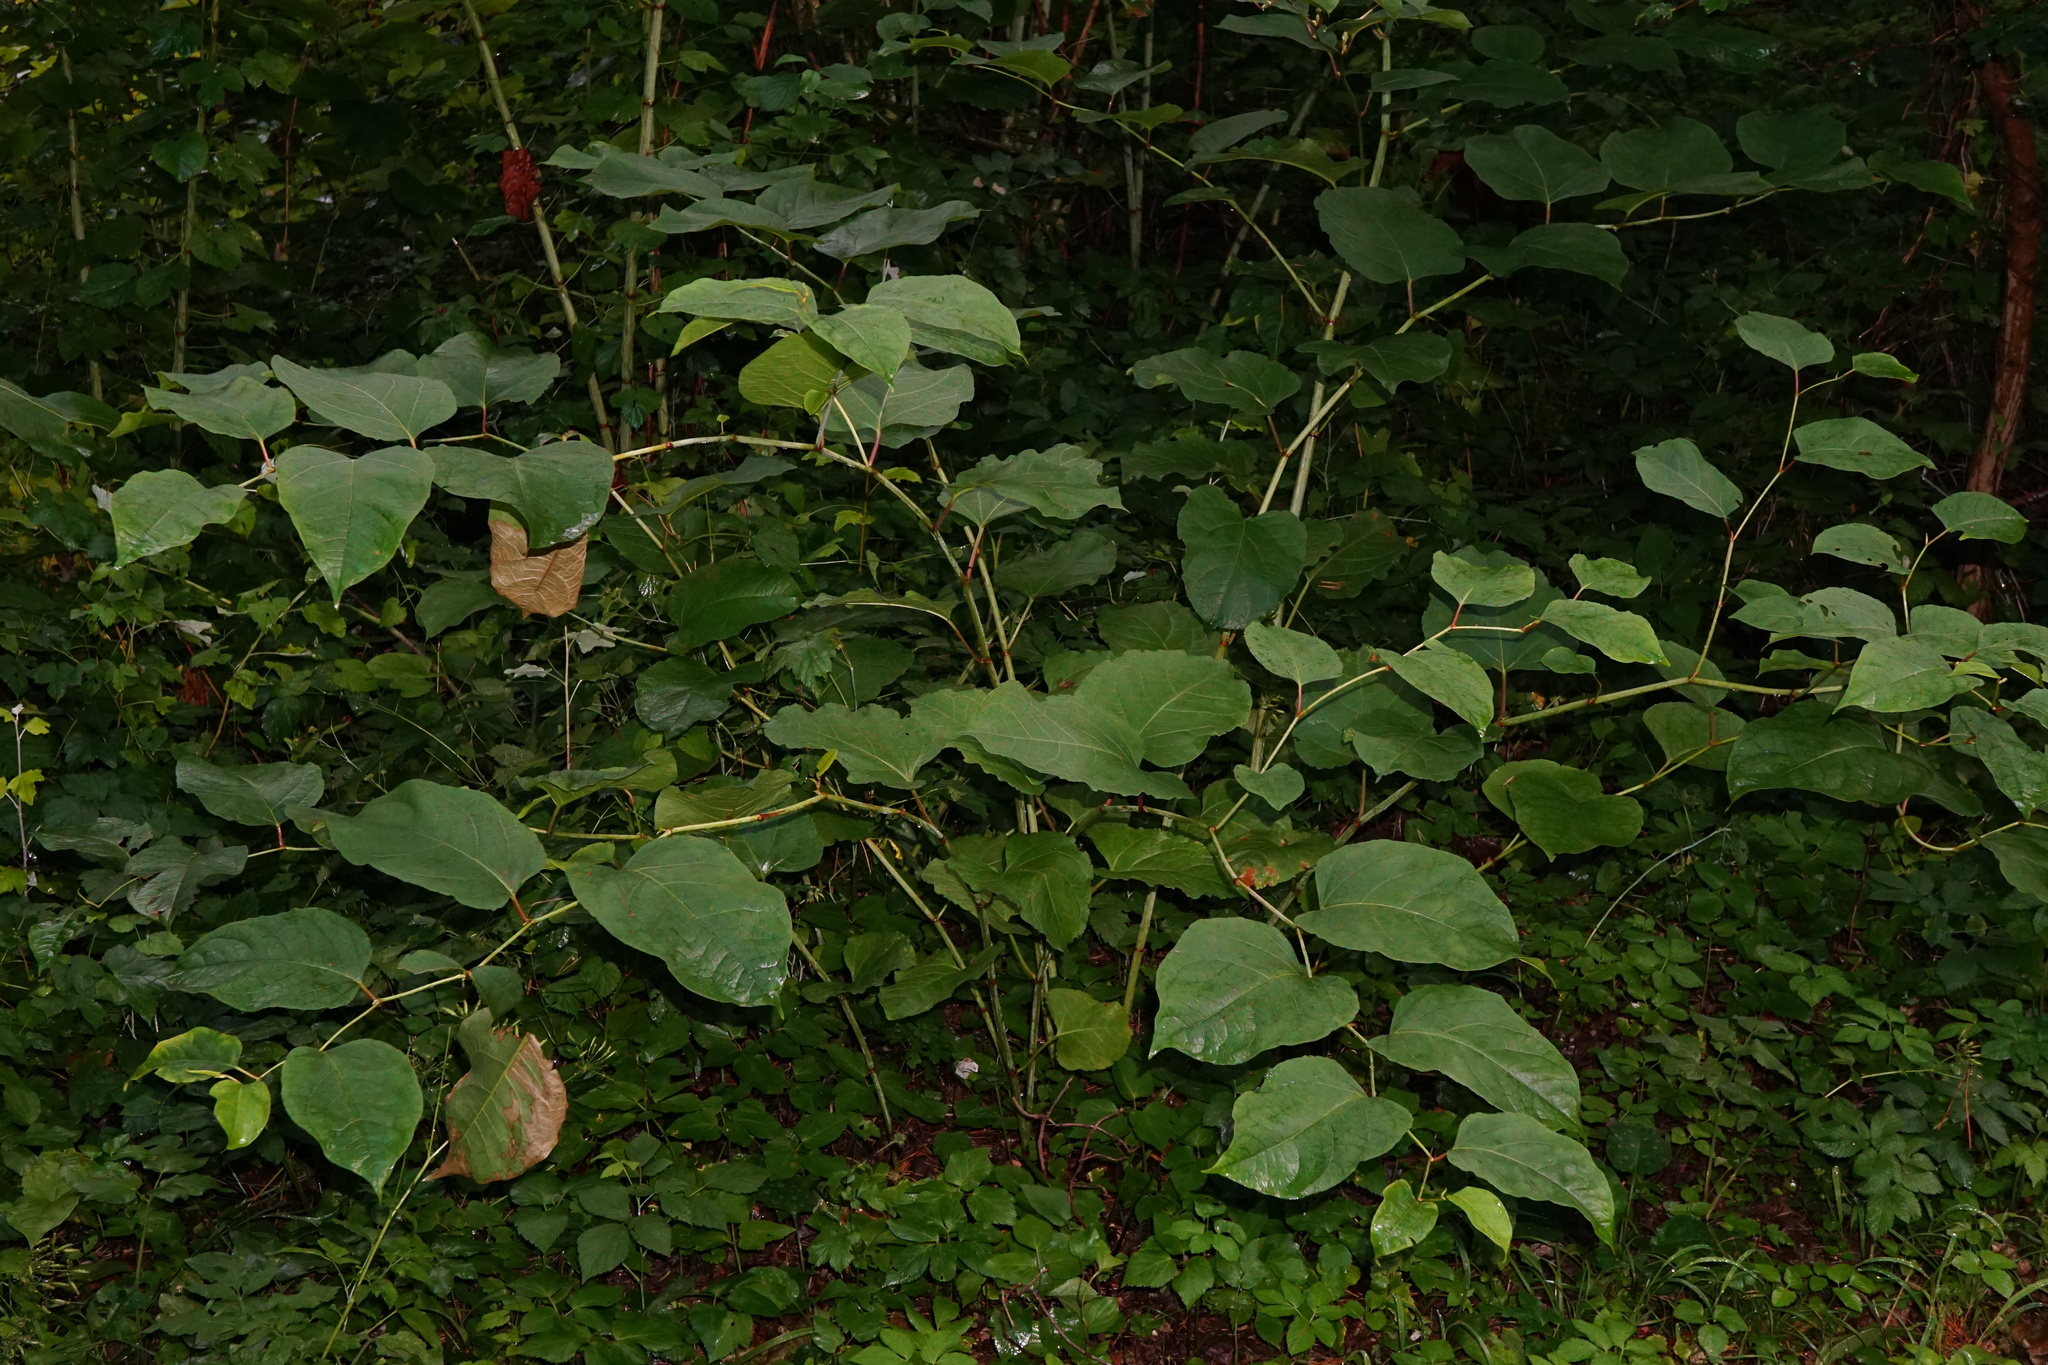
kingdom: Plantae
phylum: Tracheophyta
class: Magnoliopsida
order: Caryophyllales
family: Polygonaceae
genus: Reynoutria
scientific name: Reynoutria bohemica
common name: Bohemian knotweed
